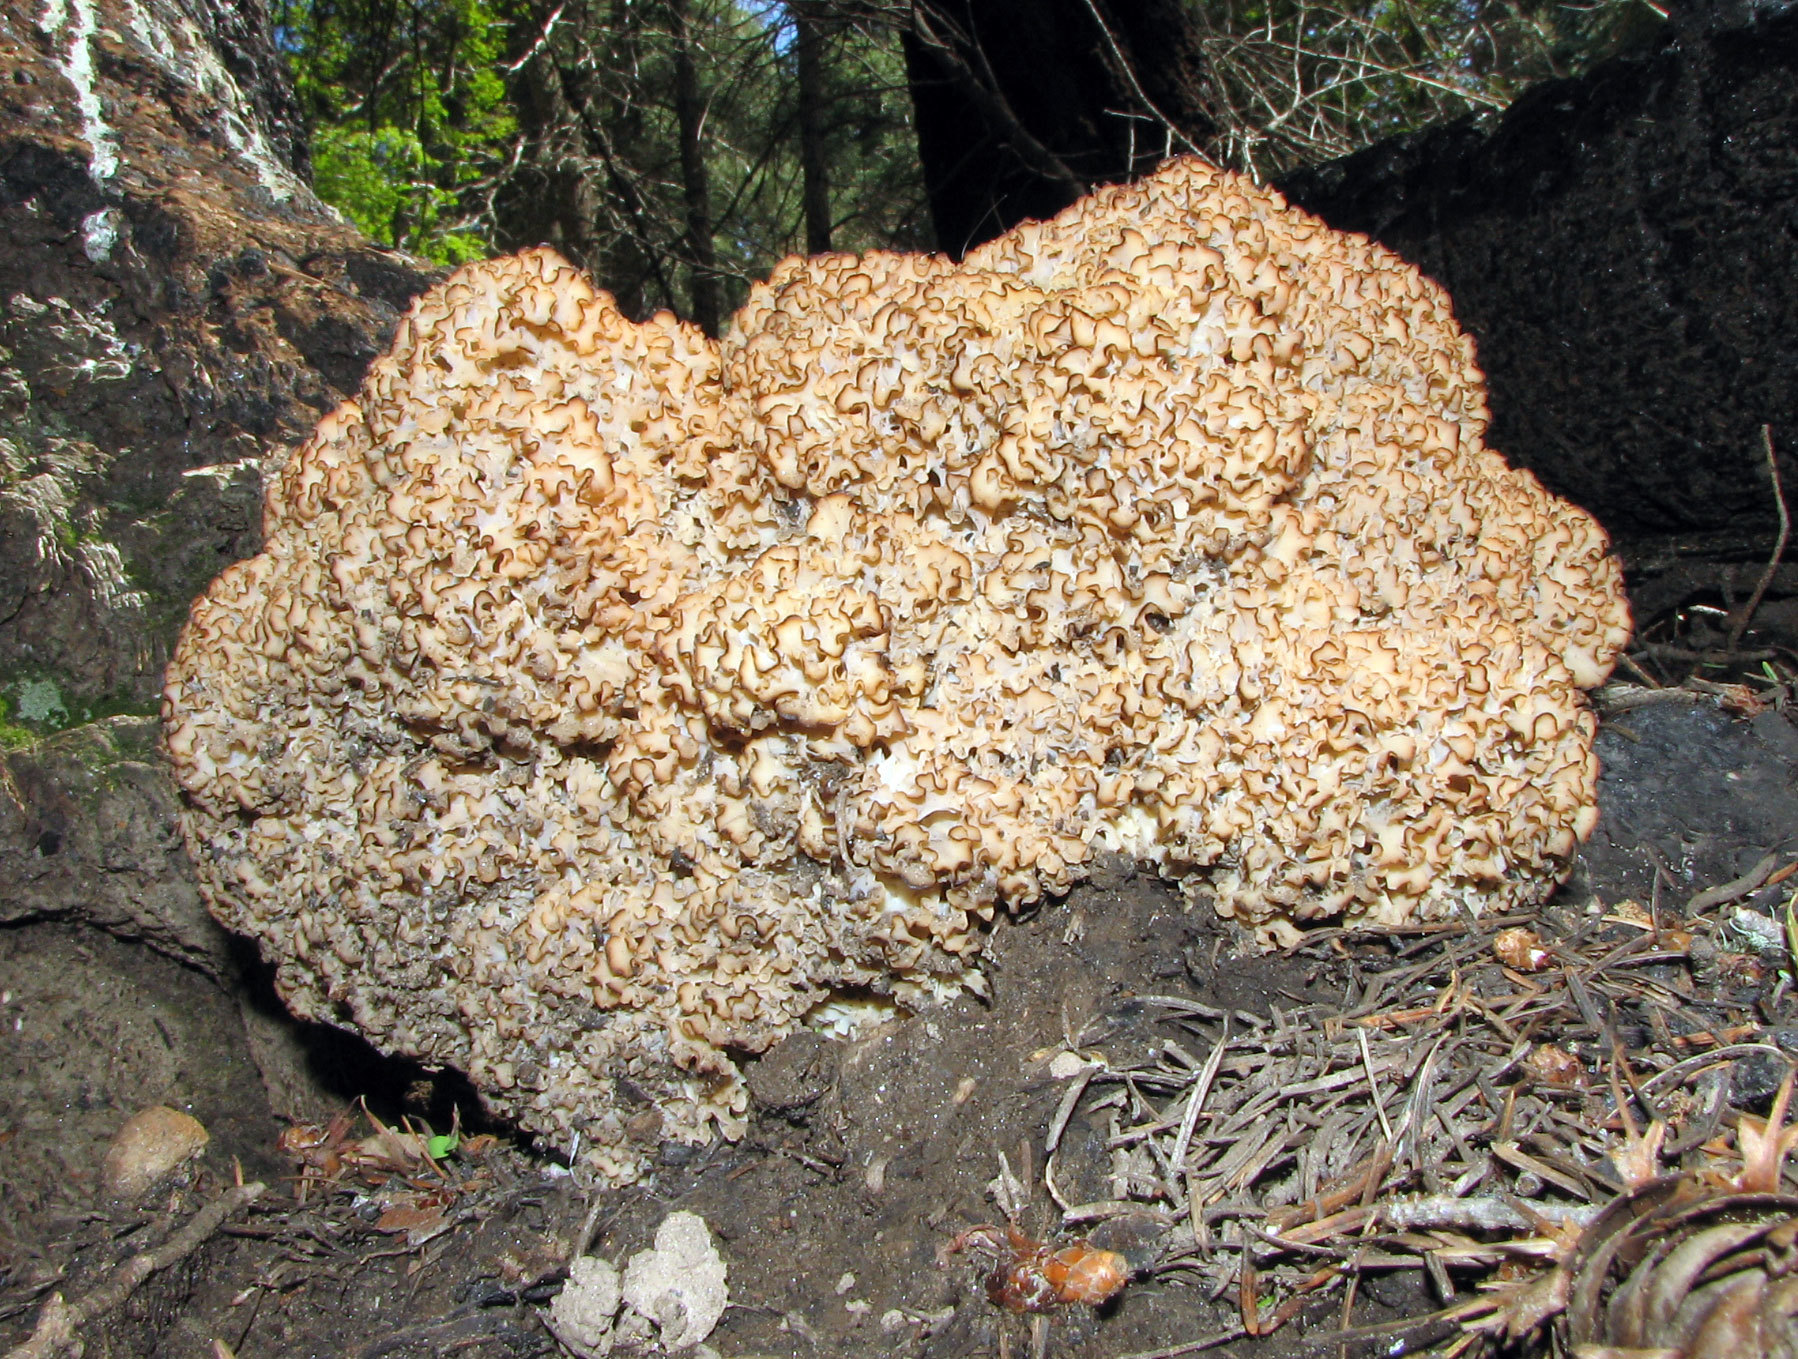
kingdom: Fungi
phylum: Basidiomycota
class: Agaricomycetes
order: Polyporales
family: Sparassidaceae
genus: Sparassis
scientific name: Sparassis americana
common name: American cauliflower mushroom
